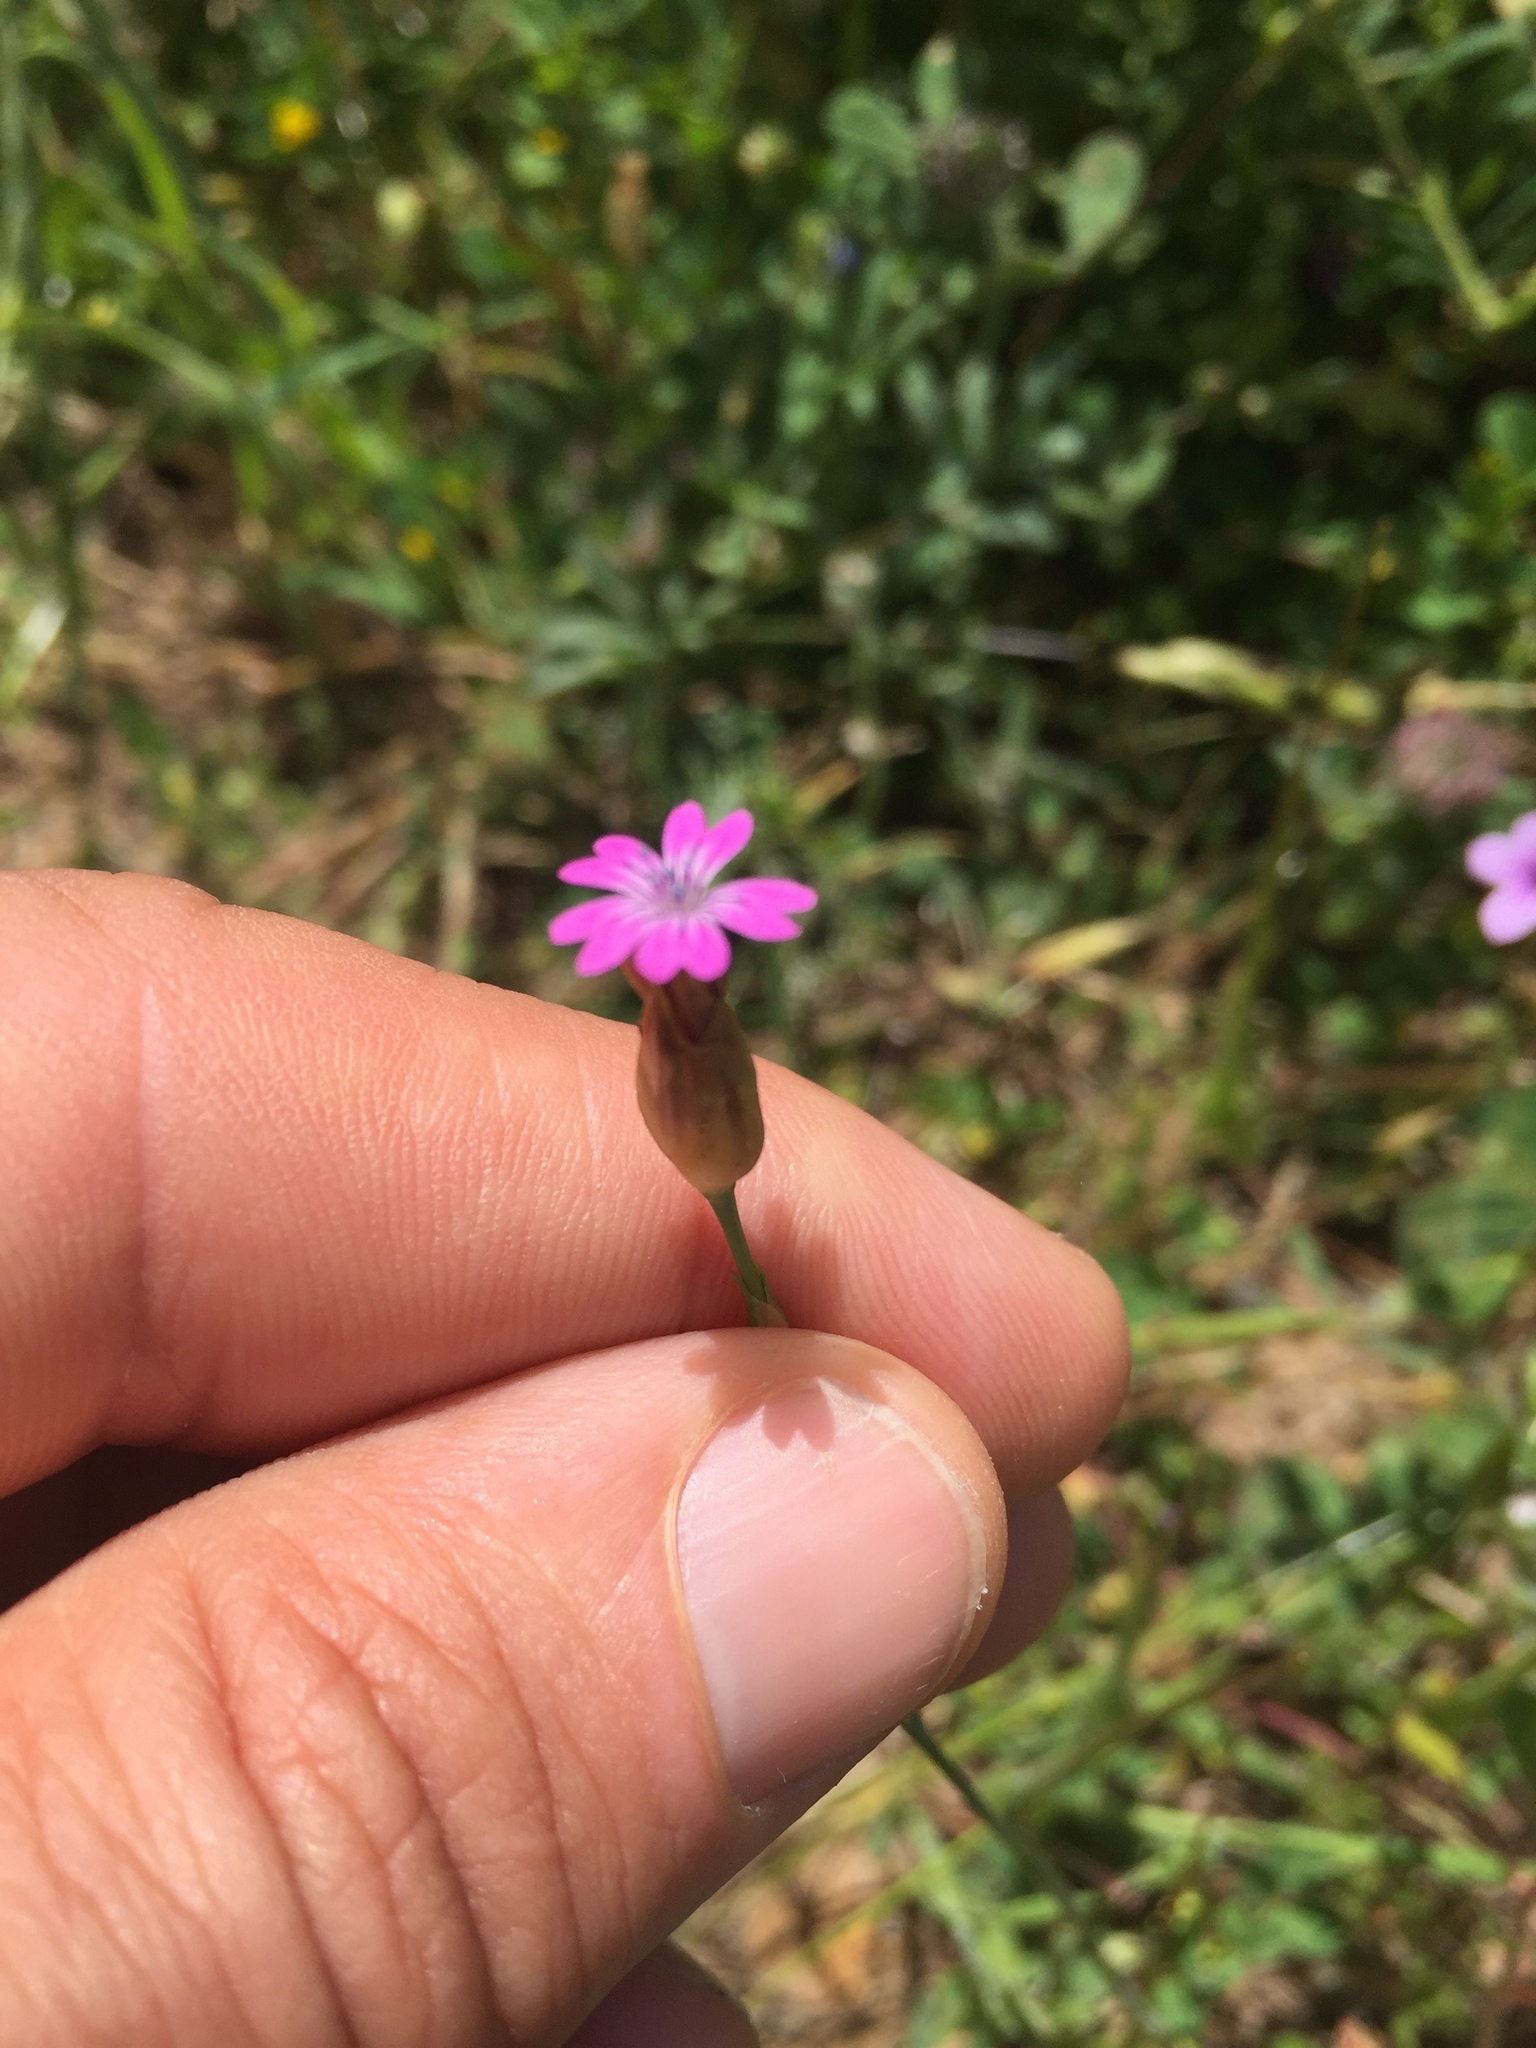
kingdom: Plantae
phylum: Tracheophyta
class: Magnoliopsida
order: Caryophyllales
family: Caryophyllaceae
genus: Petrorhagia
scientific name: Petrorhagia dubia
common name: Hairypink
